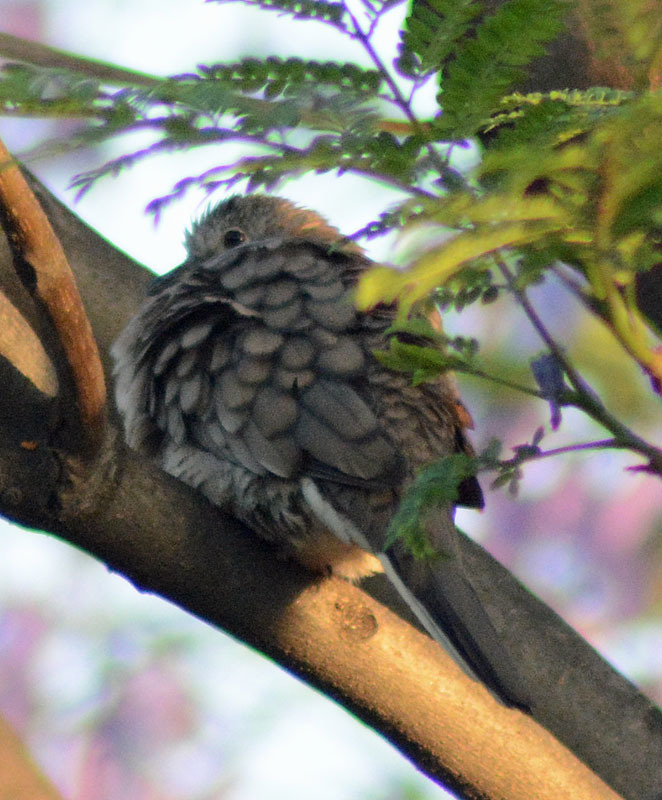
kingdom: Animalia
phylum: Chordata
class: Aves
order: Columbiformes
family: Columbidae
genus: Columbina
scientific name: Columbina inca
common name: Inca dove
